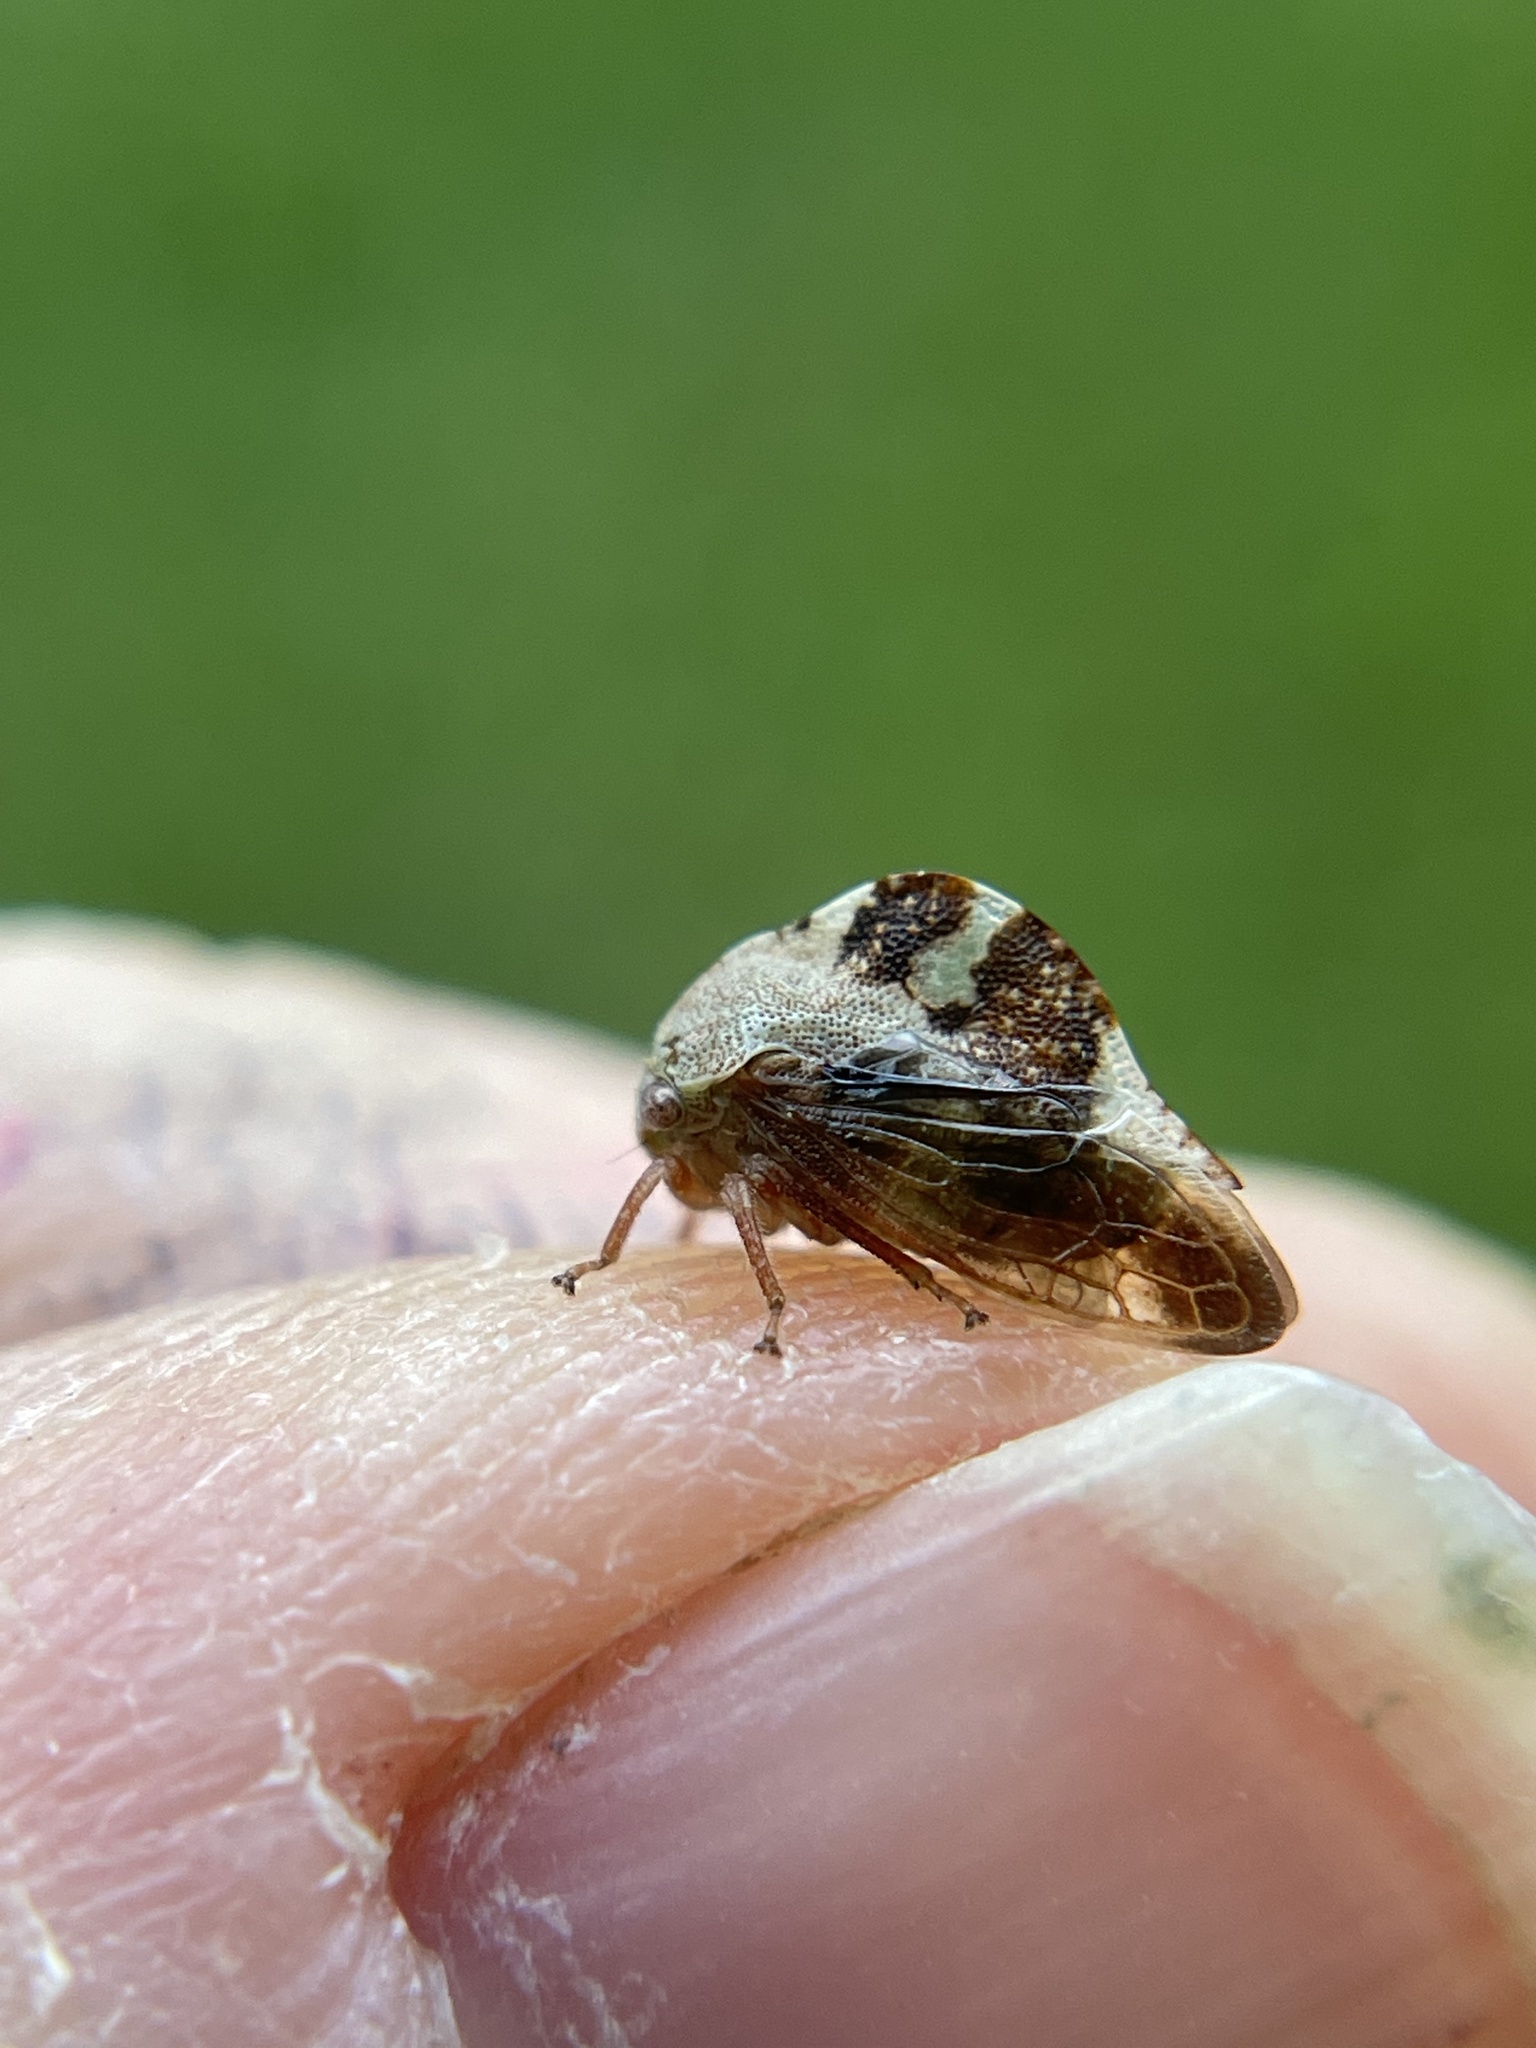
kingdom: Animalia
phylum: Arthropoda
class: Insecta
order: Hemiptera
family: Membracidae
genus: Cyrtolobus
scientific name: Cyrtolobus tuberosa
